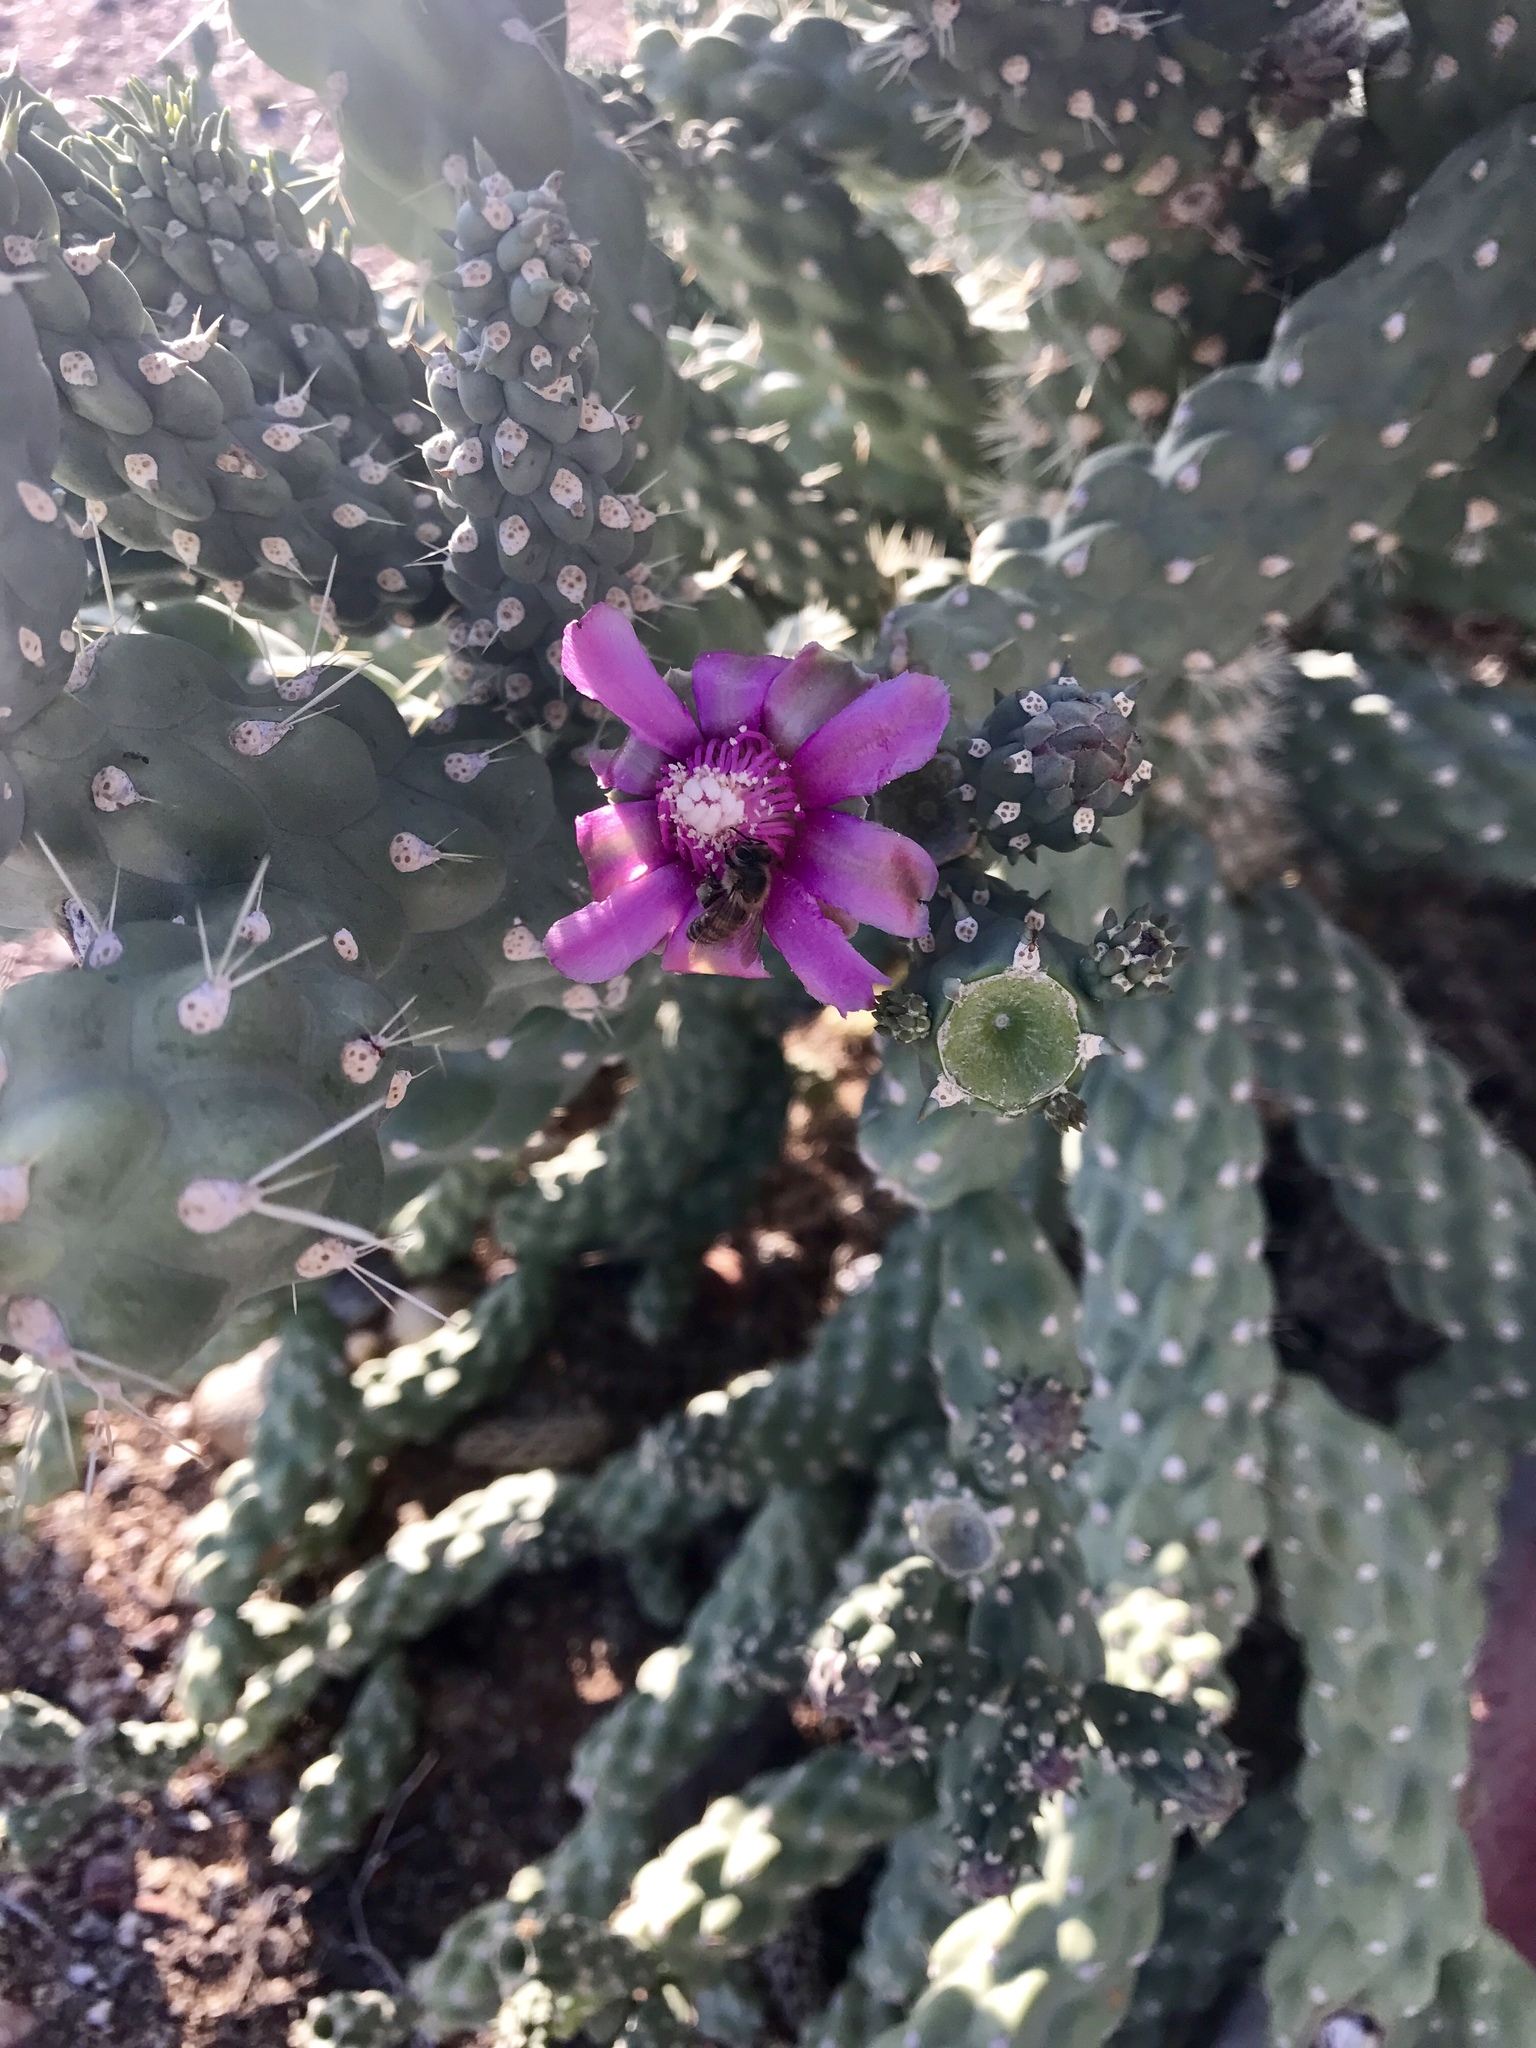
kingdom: Plantae
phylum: Tracheophyta
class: Magnoliopsida
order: Caryophyllales
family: Cactaceae
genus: Cylindropuntia
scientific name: Cylindropuntia fulgida
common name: Jumping cholla
